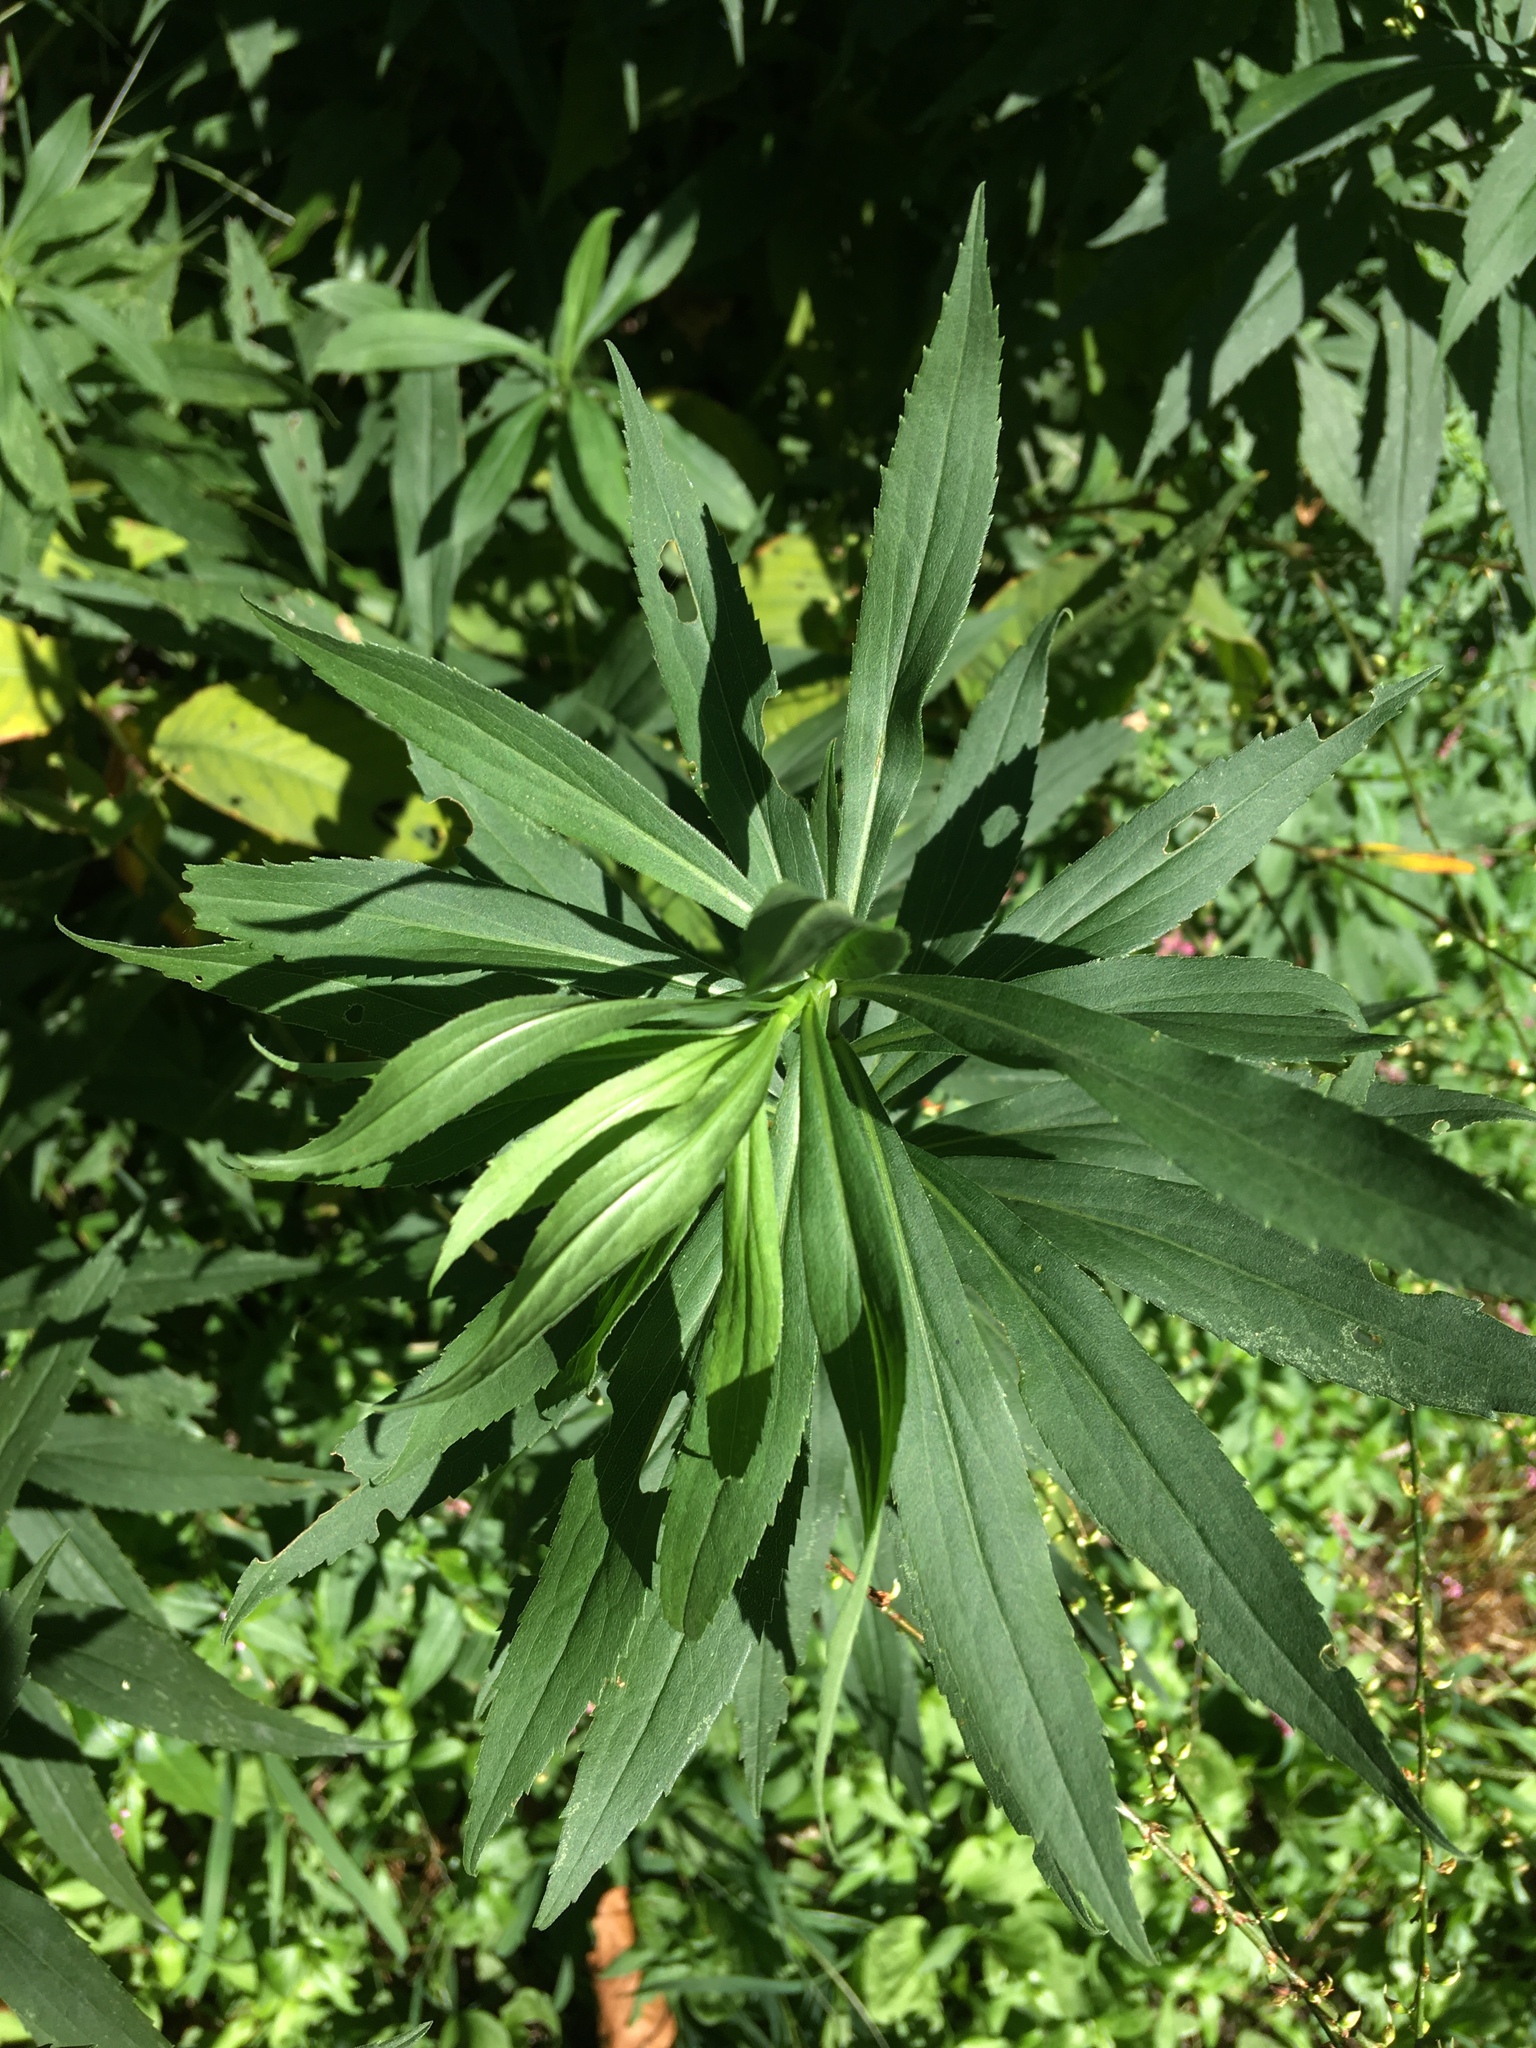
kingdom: Plantae
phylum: Tracheophyta
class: Magnoliopsida
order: Asterales
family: Asteraceae
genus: Solidago
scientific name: Solidago altissima
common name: Late goldenrod
